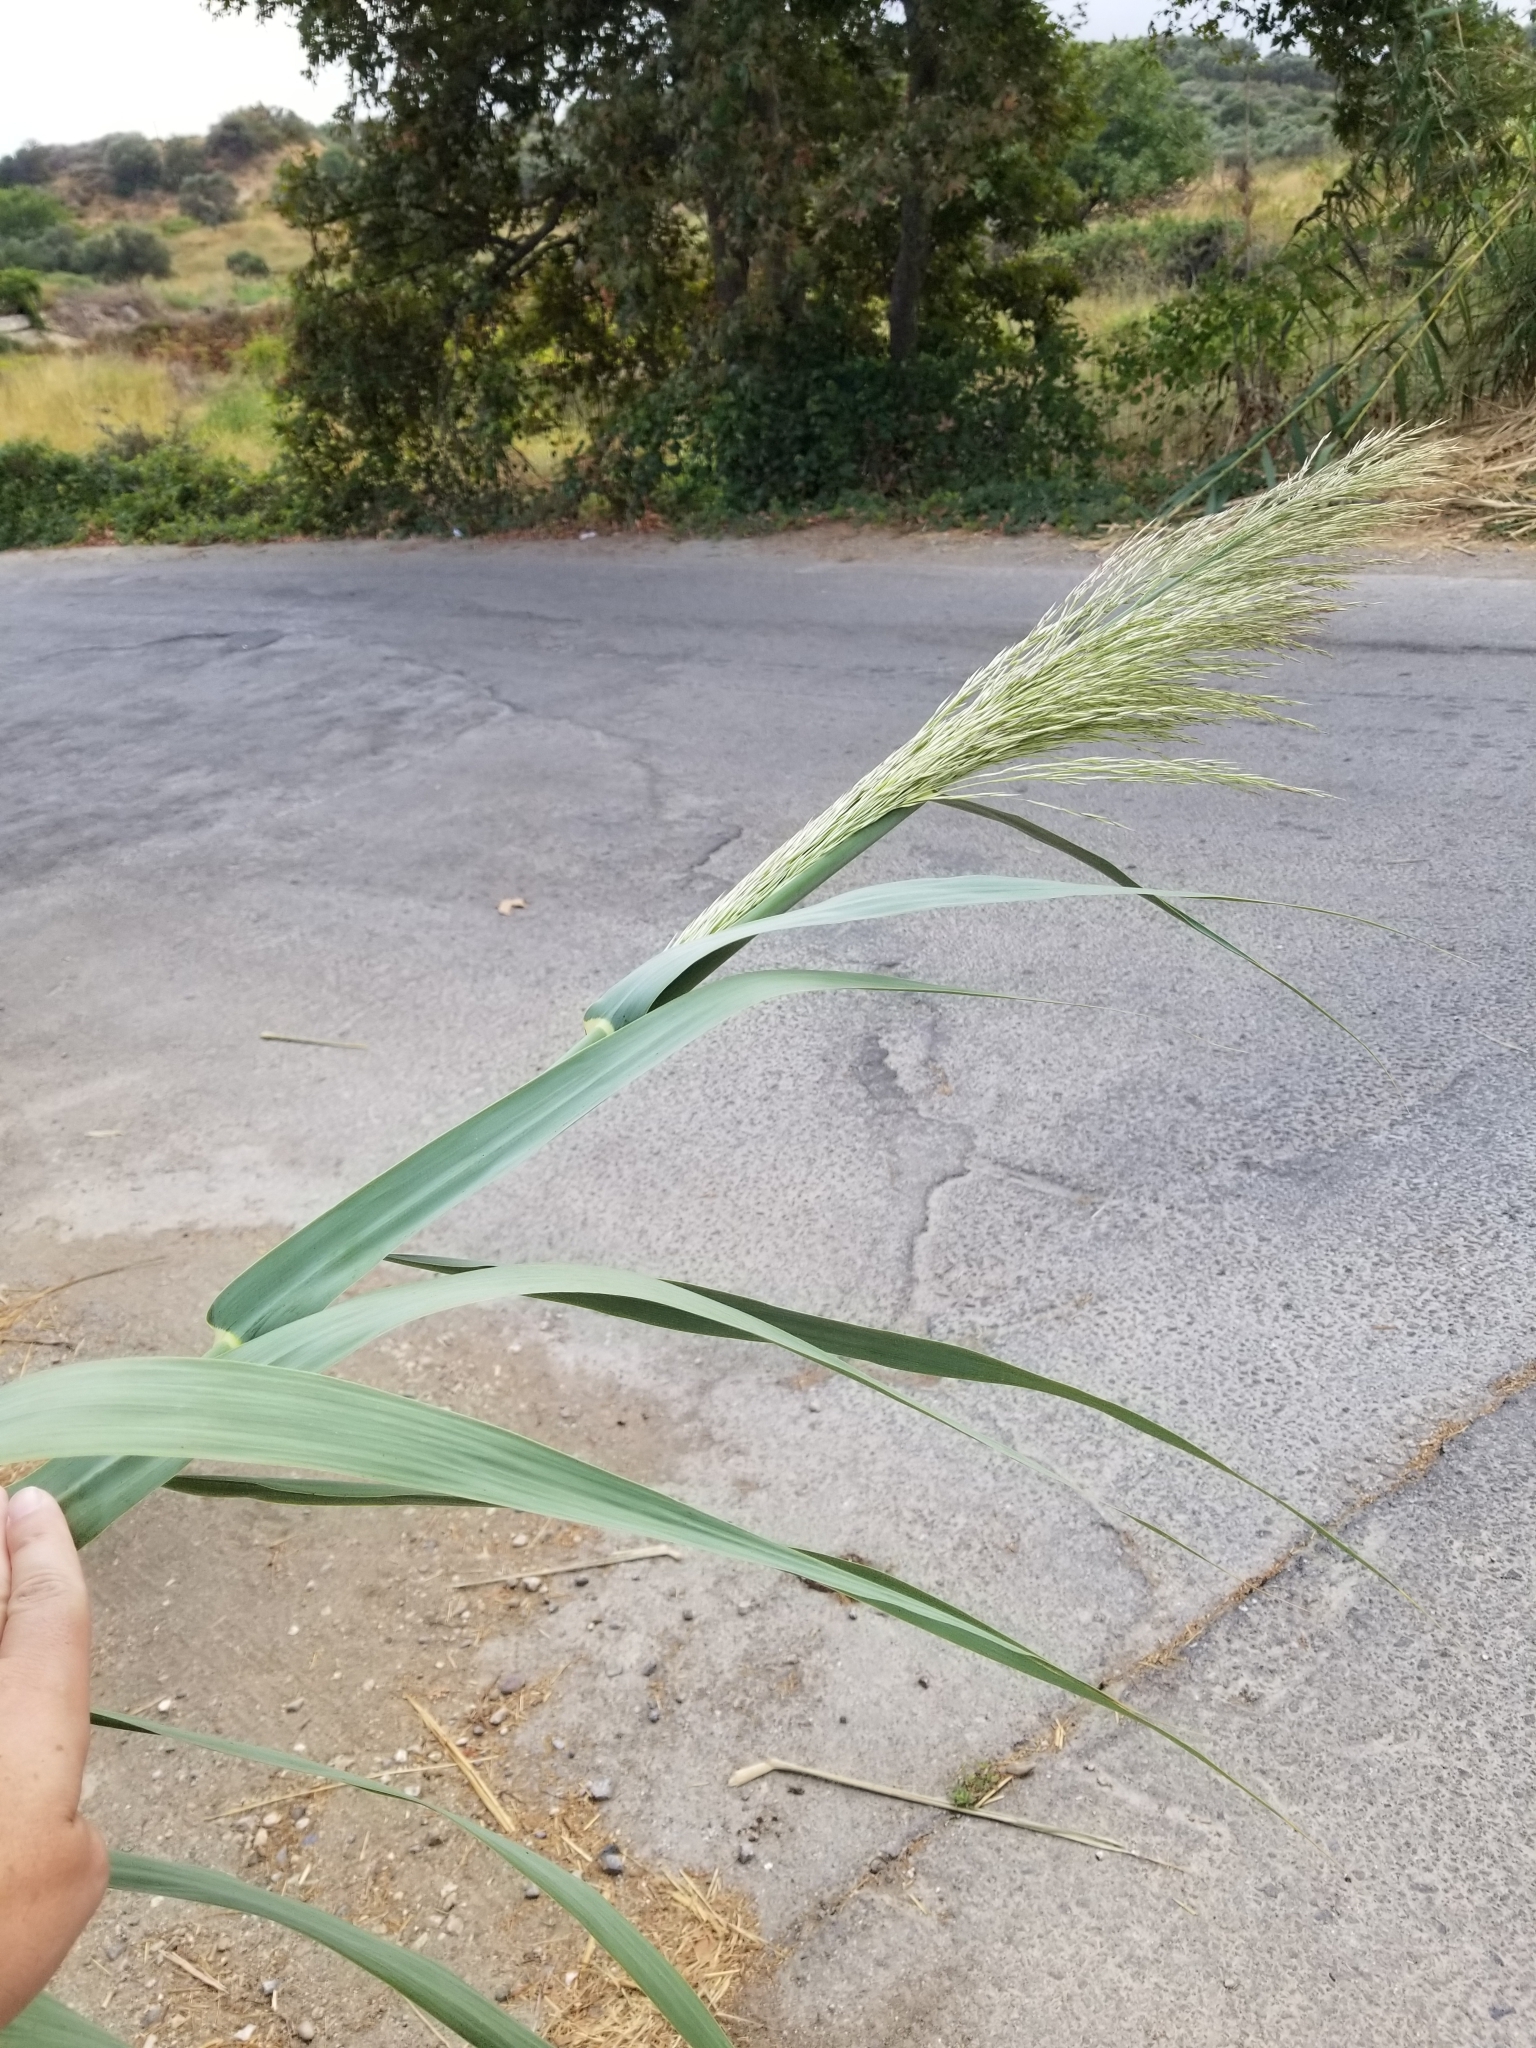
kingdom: Plantae
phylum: Tracheophyta
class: Liliopsida
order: Poales
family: Poaceae
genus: Arundo
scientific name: Arundo donax
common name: Giant reed
